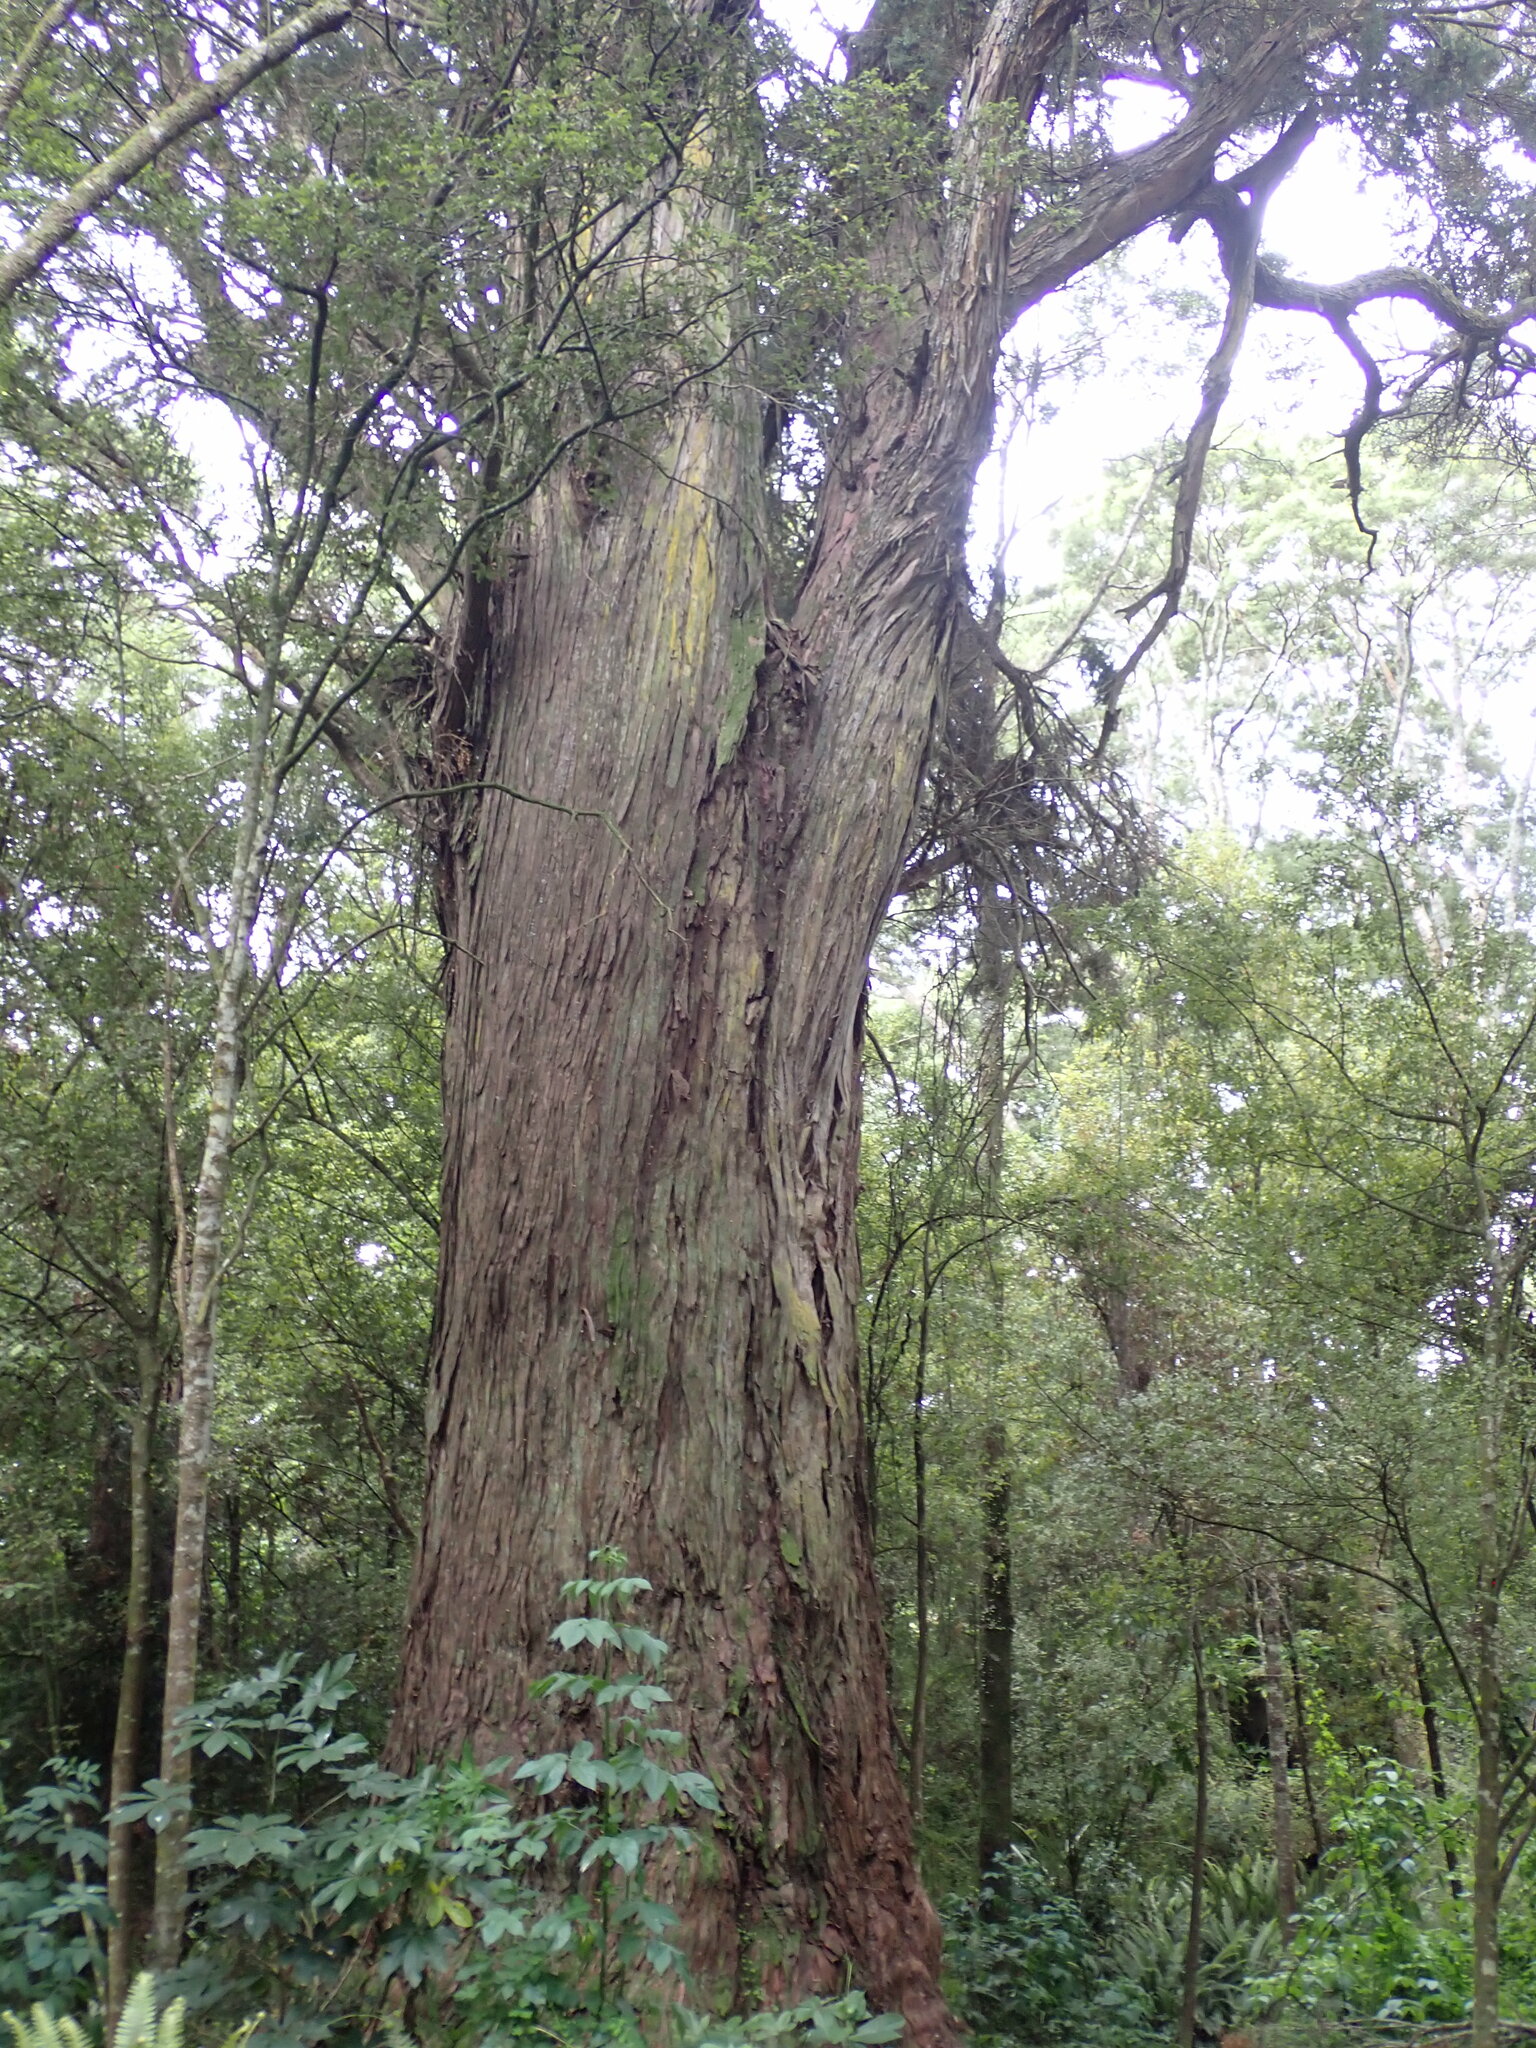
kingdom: Plantae
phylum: Tracheophyta
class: Pinopsida
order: Pinales
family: Podocarpaceae
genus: Podocarpus
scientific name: Podocarpus totara
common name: Totara
